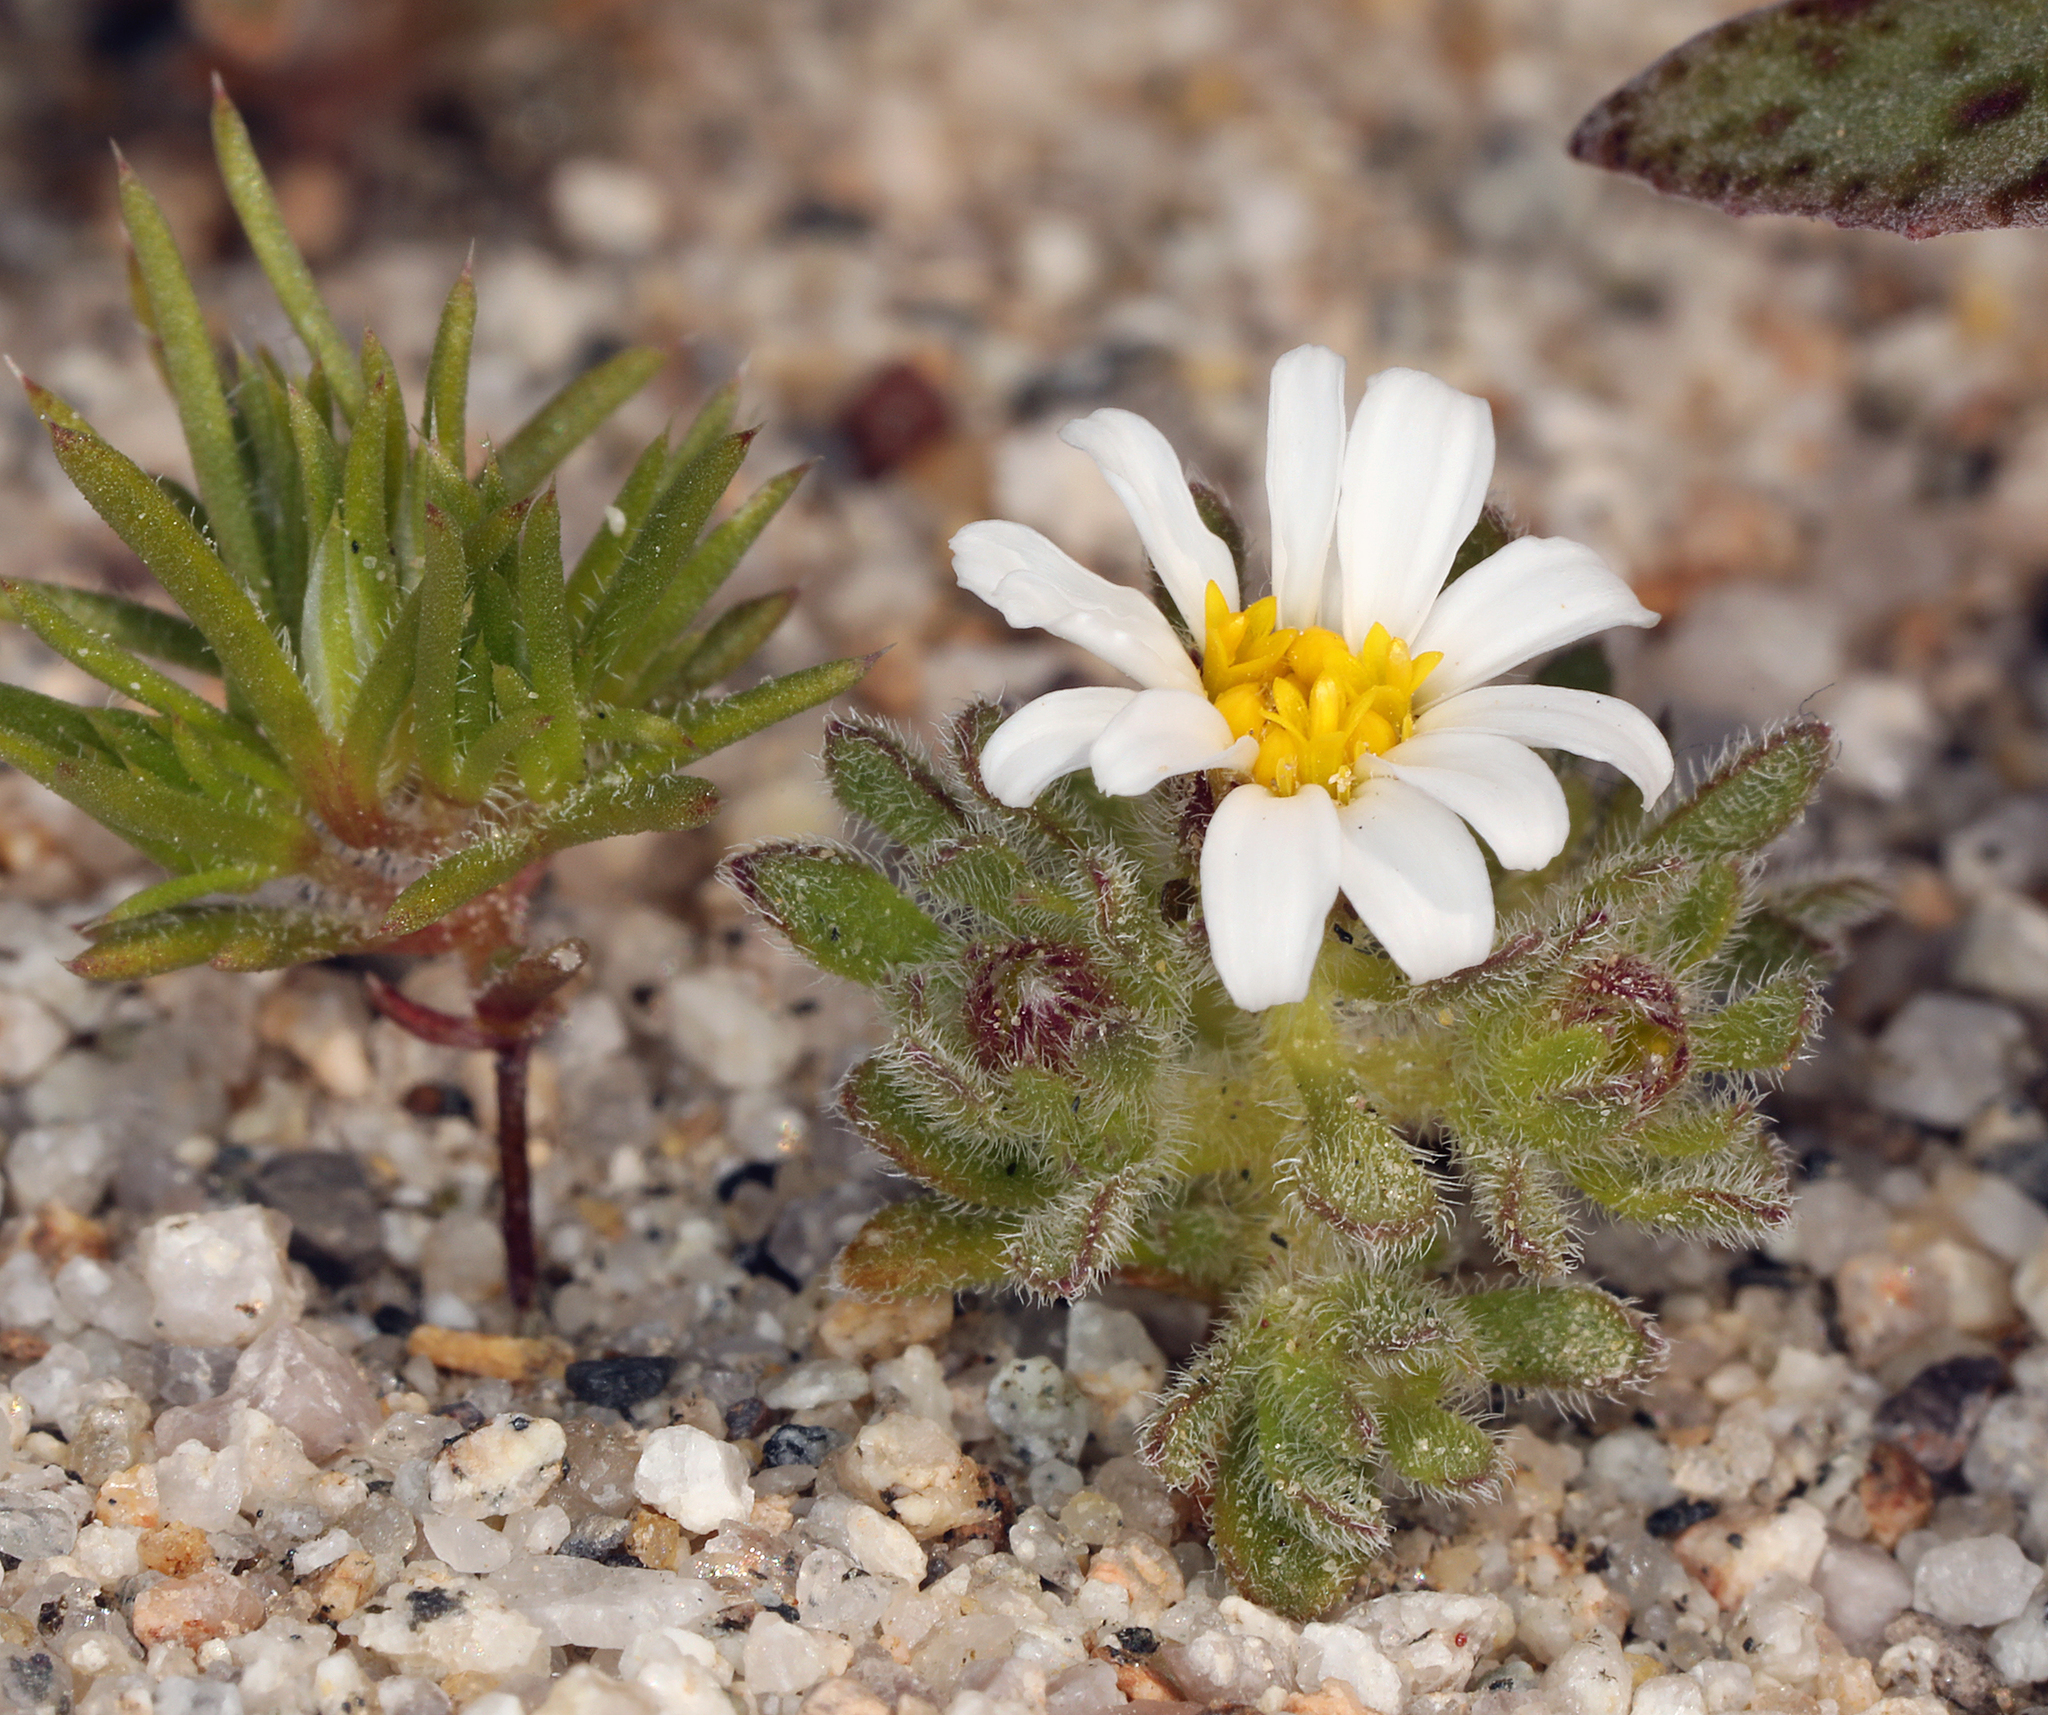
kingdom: Plantae
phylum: Tracheophyta
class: Magnoliopsida
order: Asterales
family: Asteraceae
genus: Monoptilon
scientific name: Monoptilon bellioides
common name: Bristly desertstar
